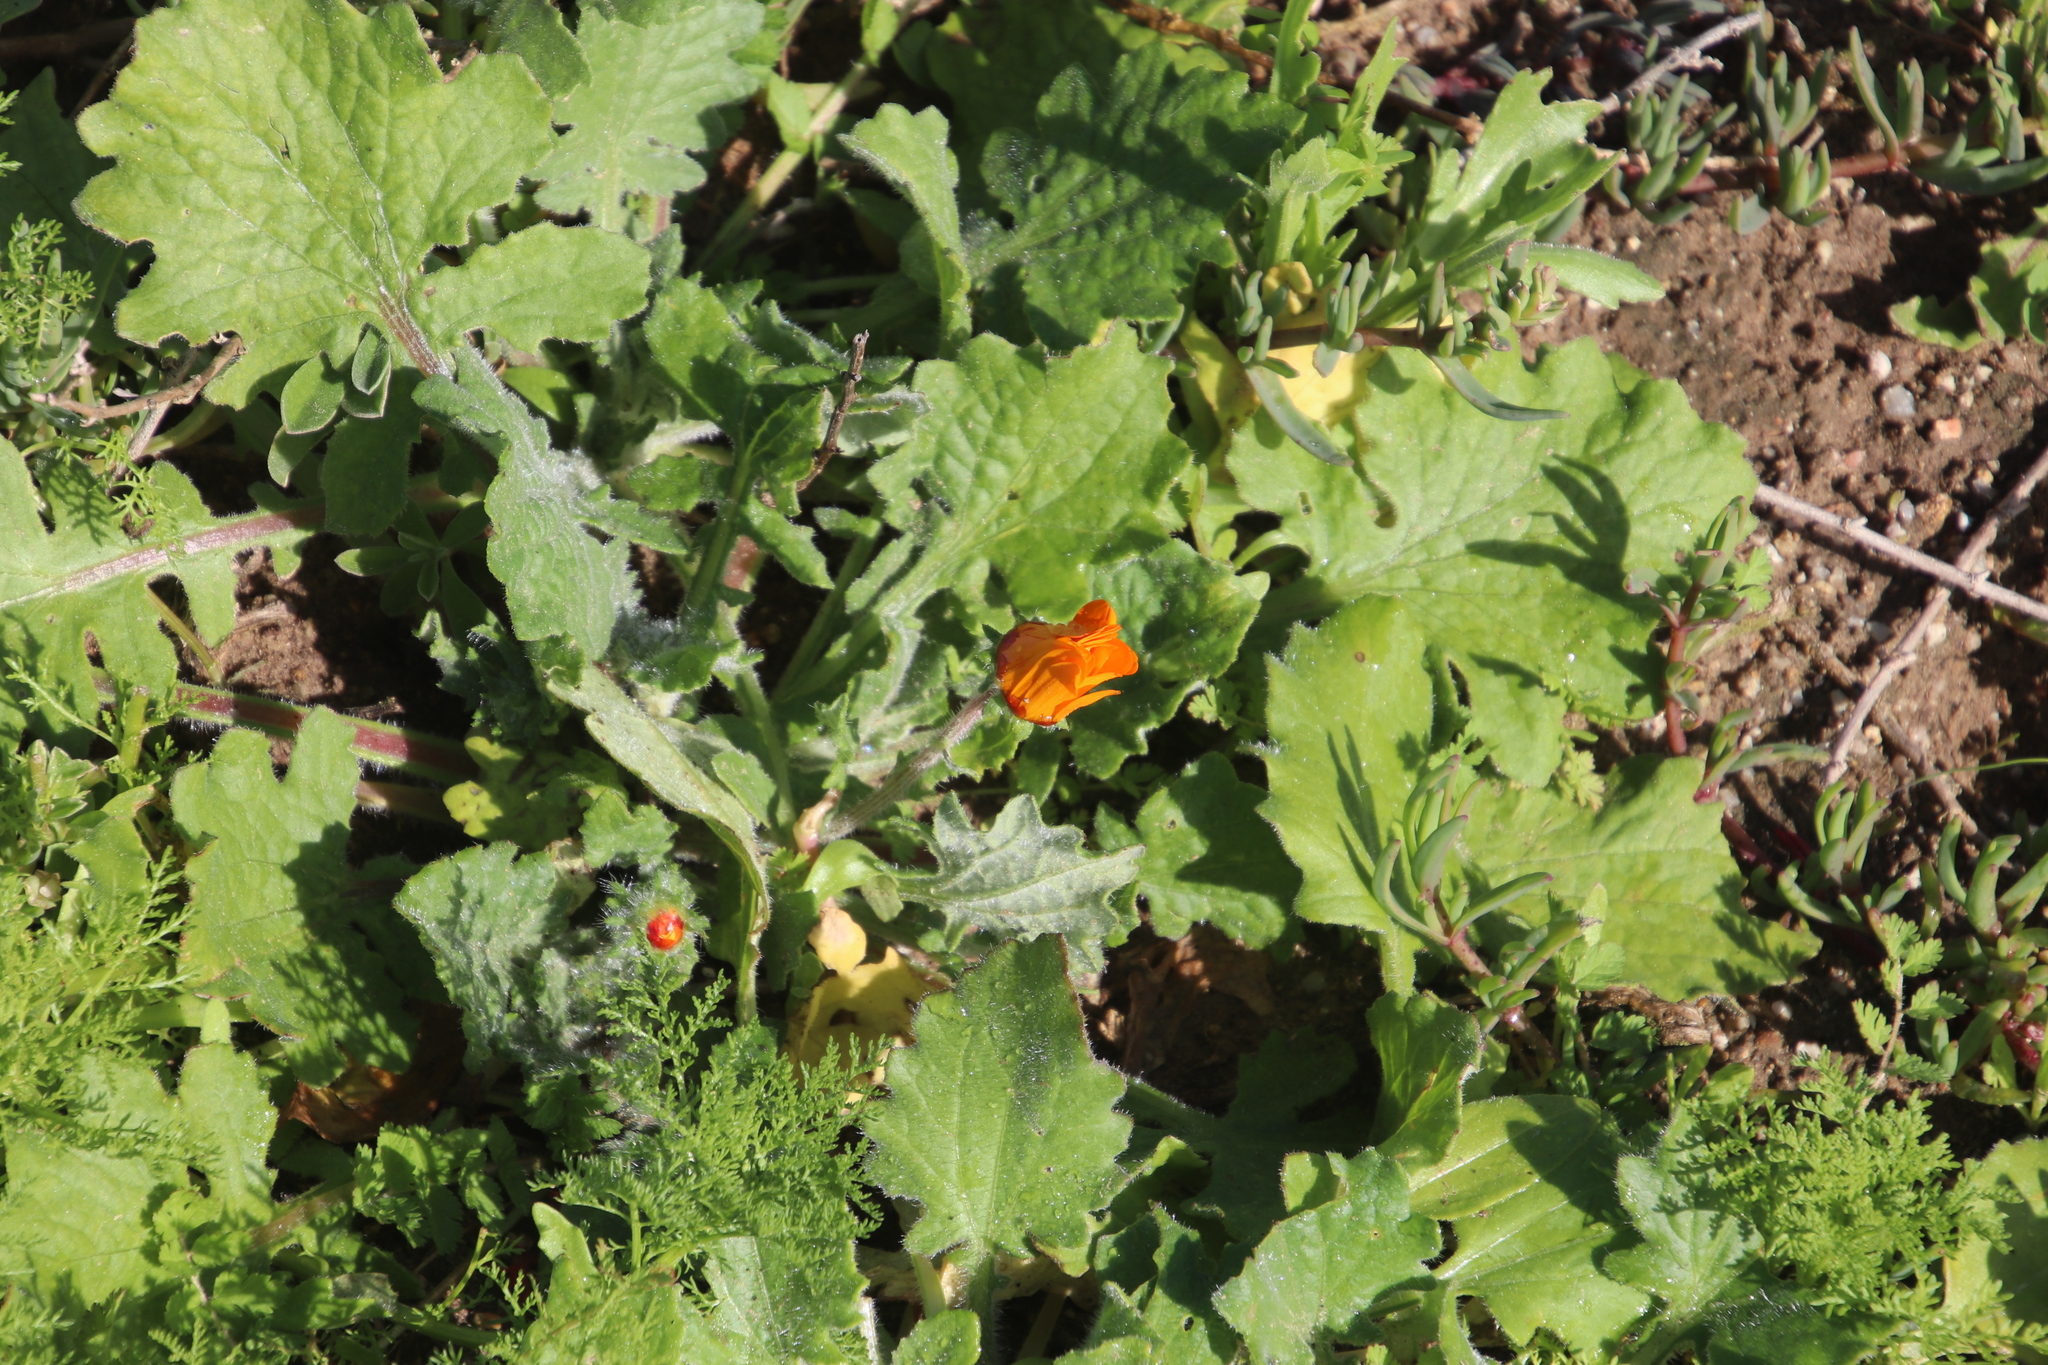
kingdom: Plantae
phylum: Tracheophyta
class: Magnoliopsida
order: Asterales
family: Asteraceae
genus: Arctotis
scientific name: Arctotis hirsuta
